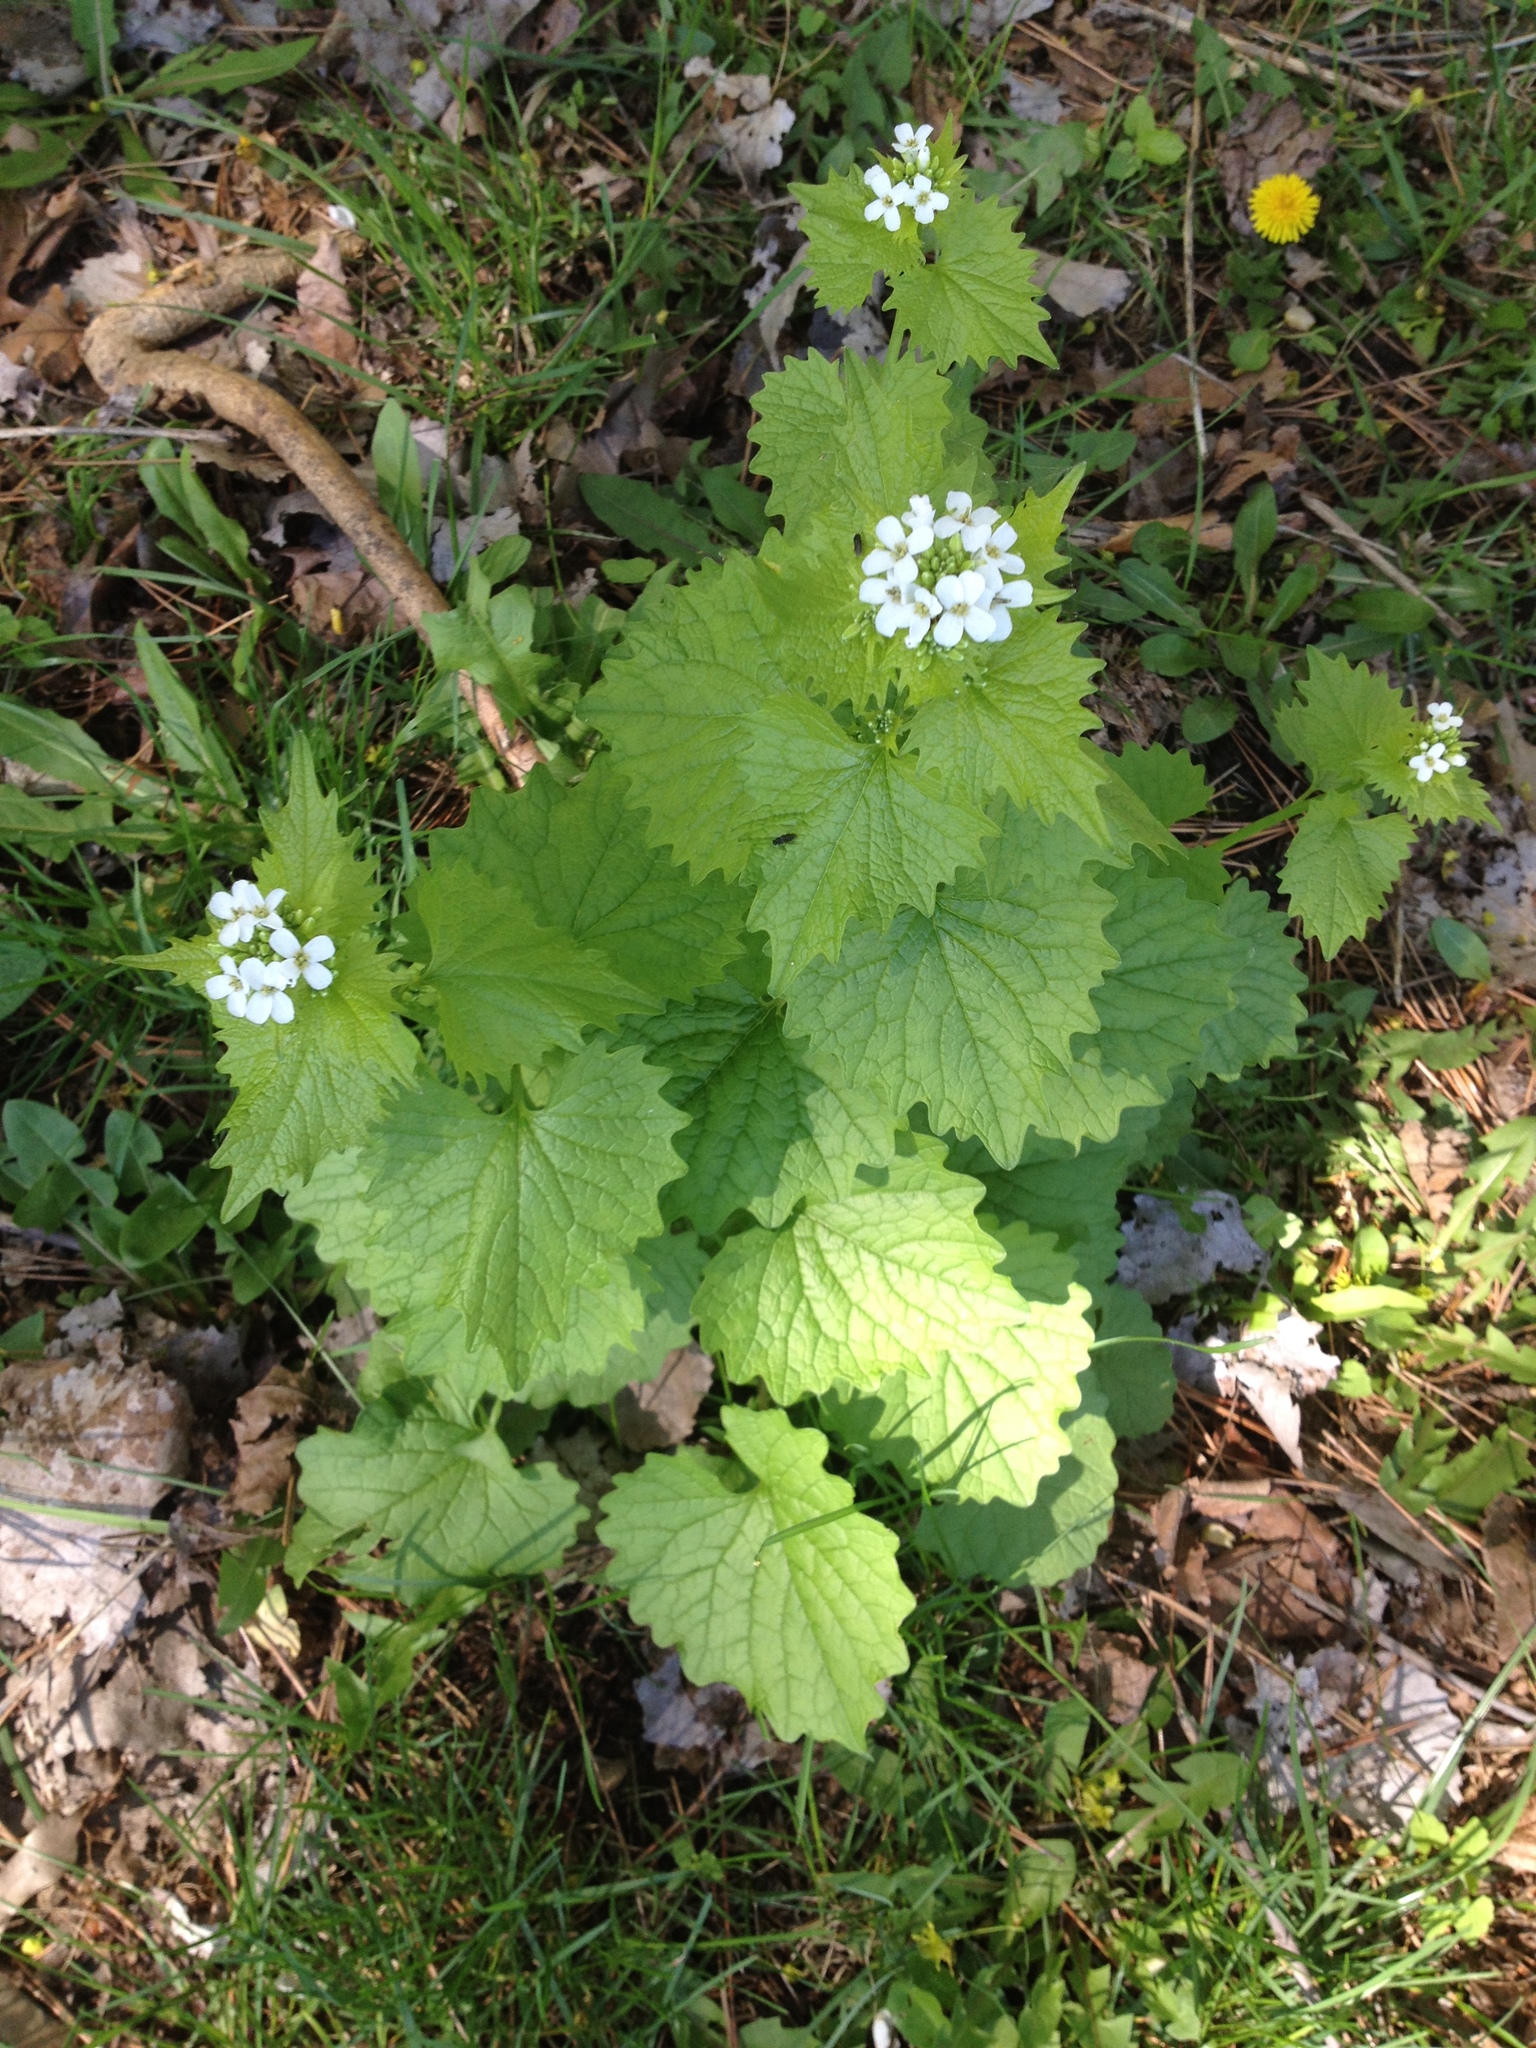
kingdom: Plantae
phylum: Tracheophyta
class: Magnoliopsida
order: Brassicales
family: Brassicaceae
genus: Alliaria
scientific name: Alliaria petiolata
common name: Garlic mustard
